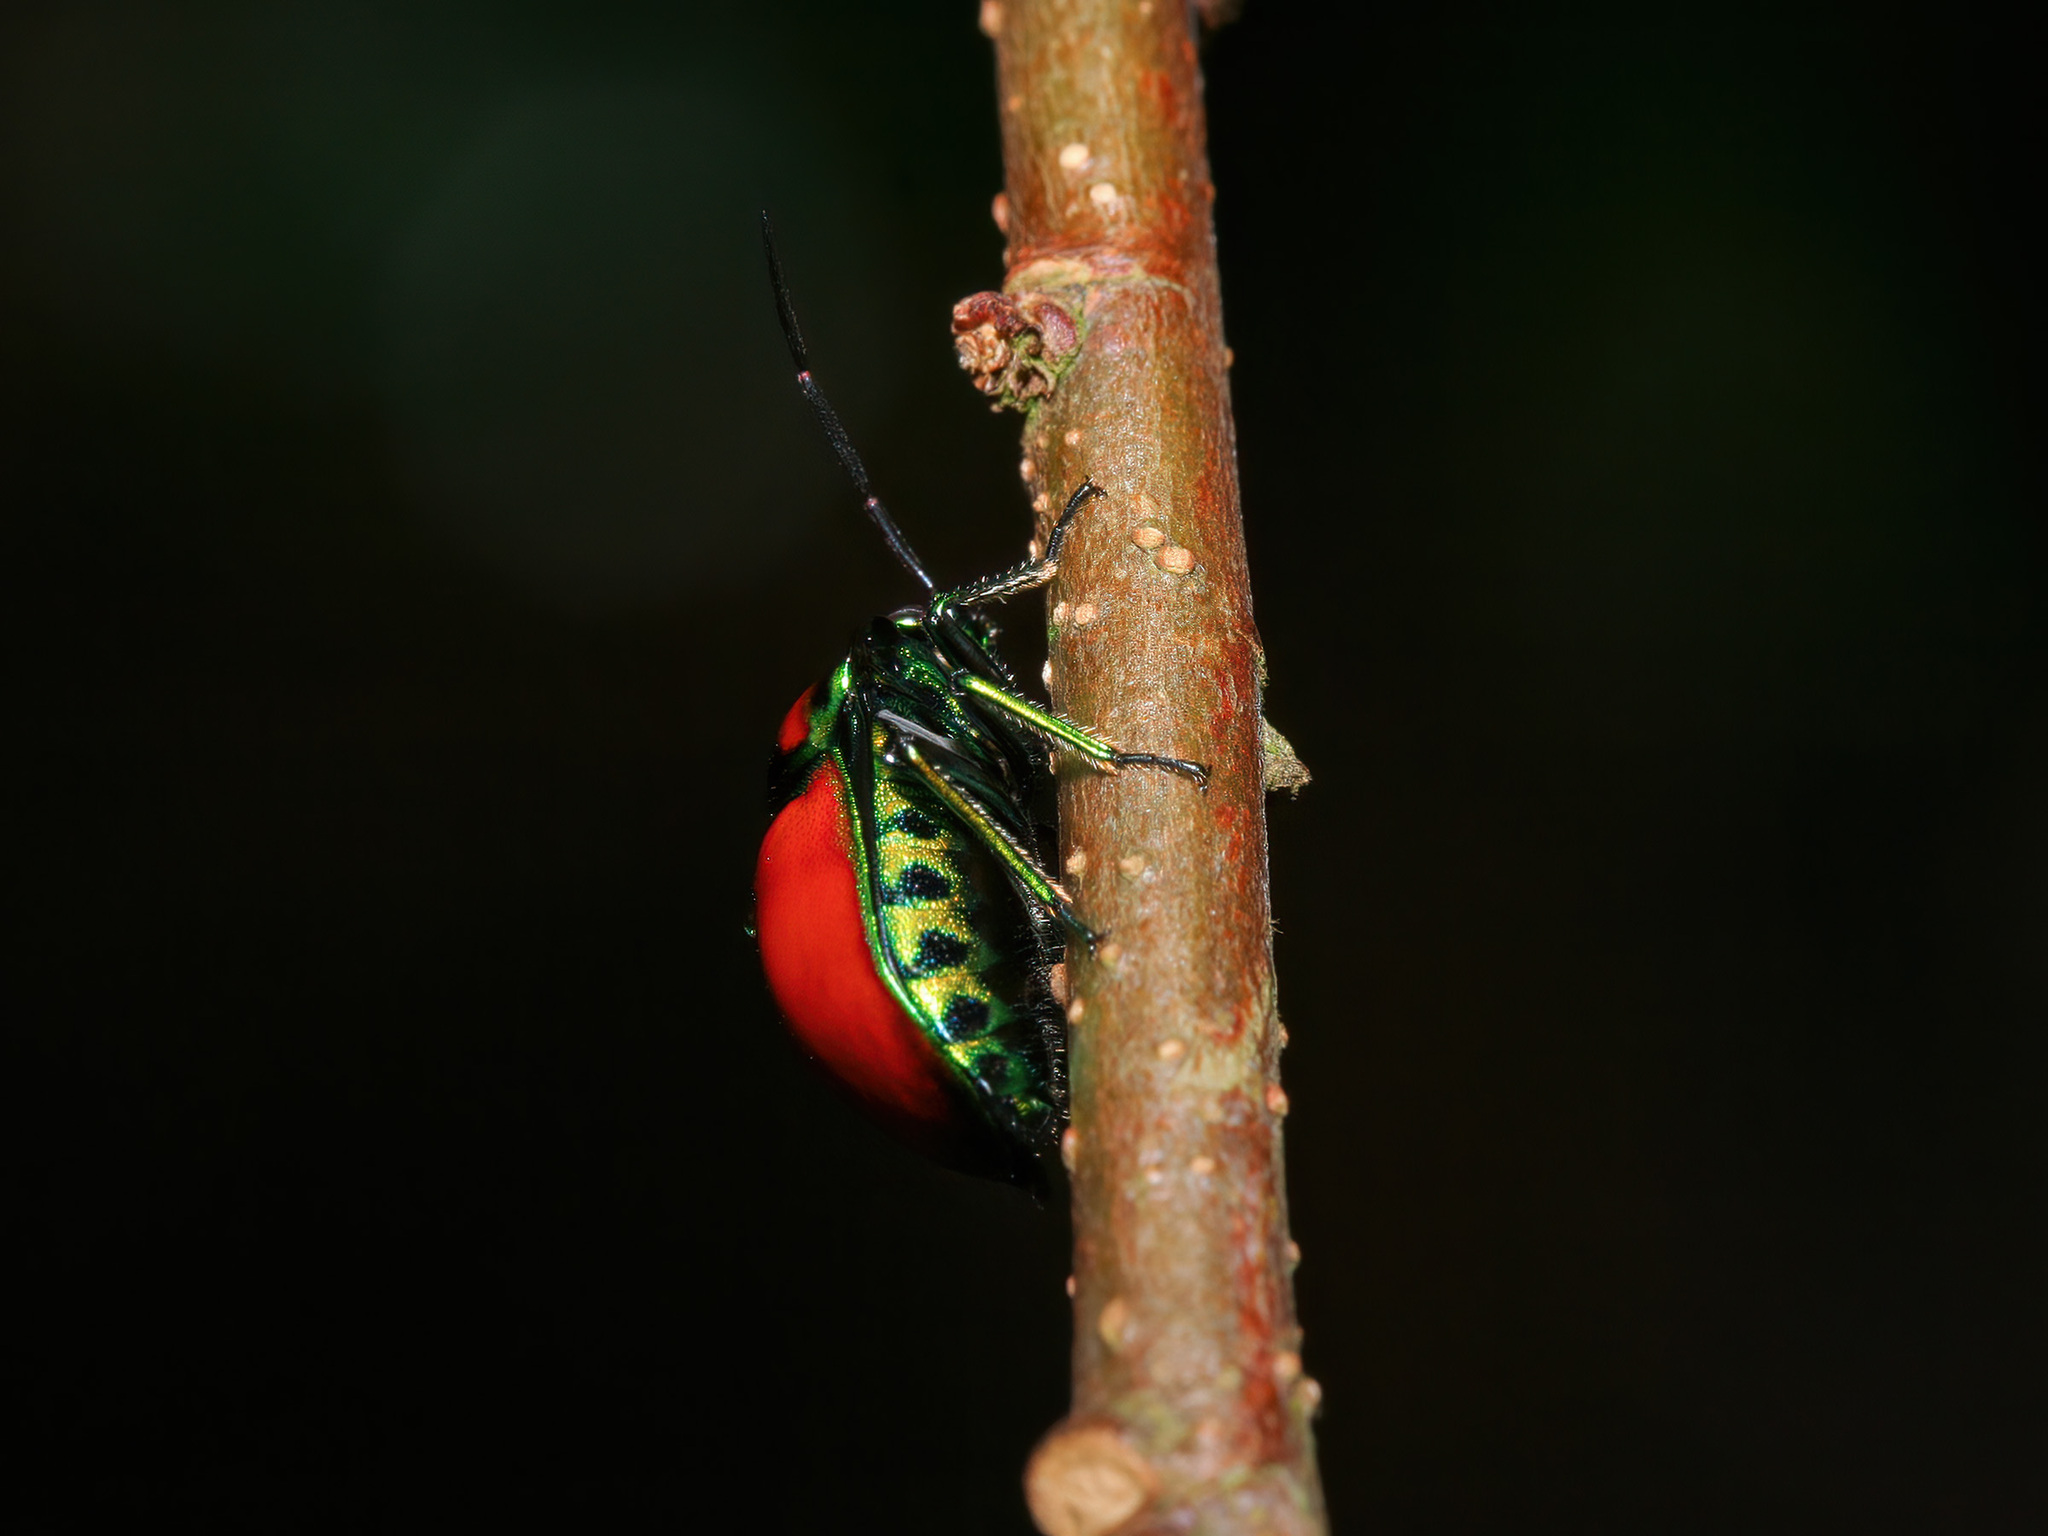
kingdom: Animalia
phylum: Arthropoda
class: Insecta
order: Hemiptera
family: Scutelleridae
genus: Chrysocoris
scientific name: Chrysocoris
